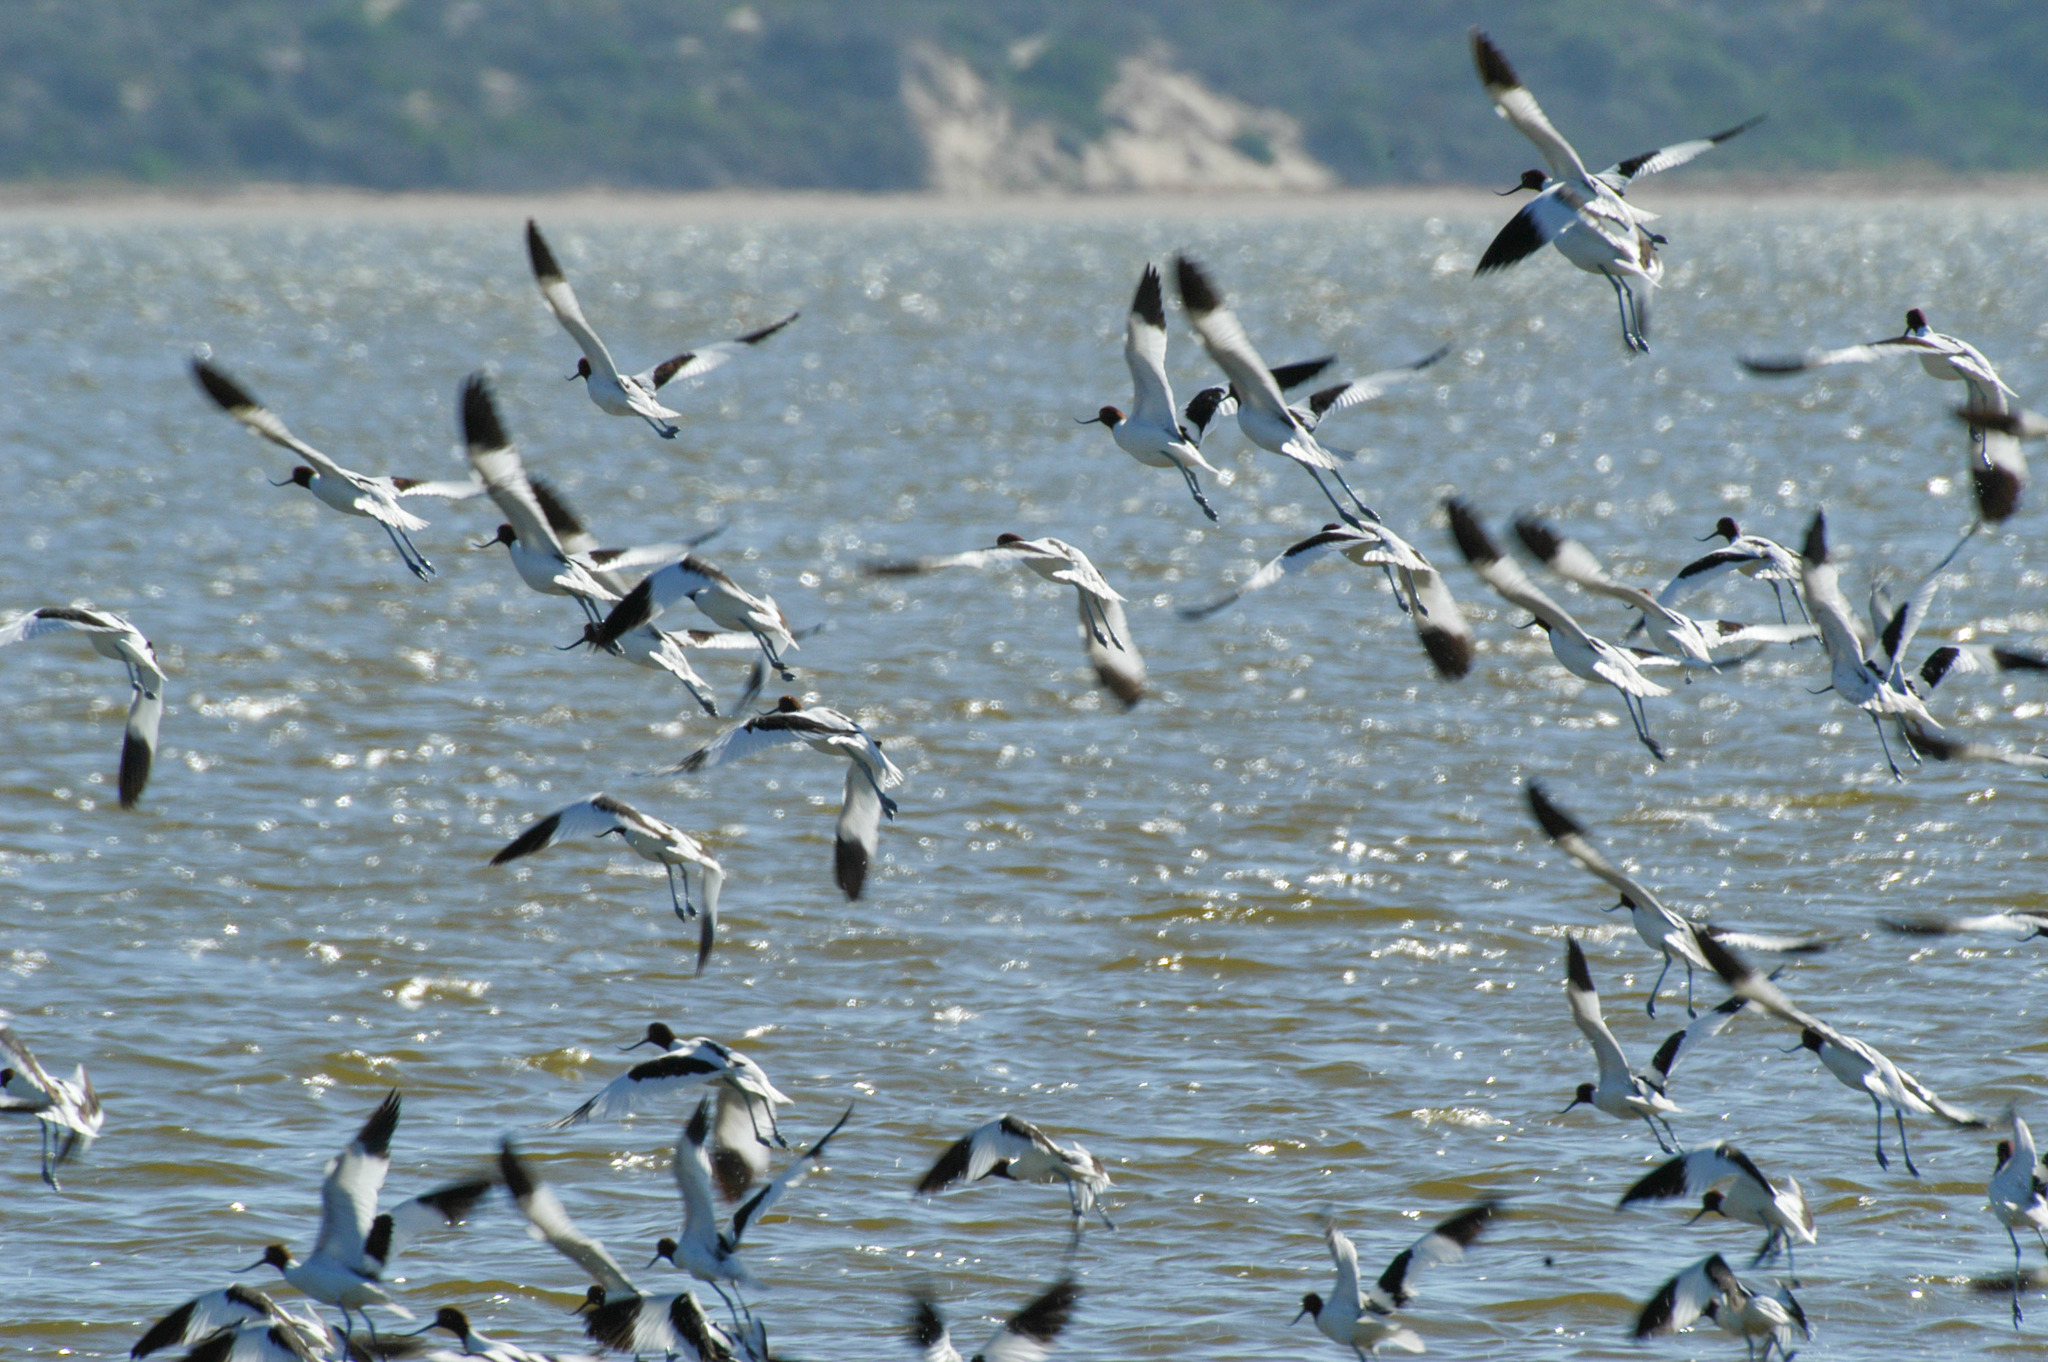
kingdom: Animalia
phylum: Chordata
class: Aves
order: Charadriiformes
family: Recurvirostridae
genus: Recurvirostra
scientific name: Recurvirostra novaehollandiae
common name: Red-necked avocet
